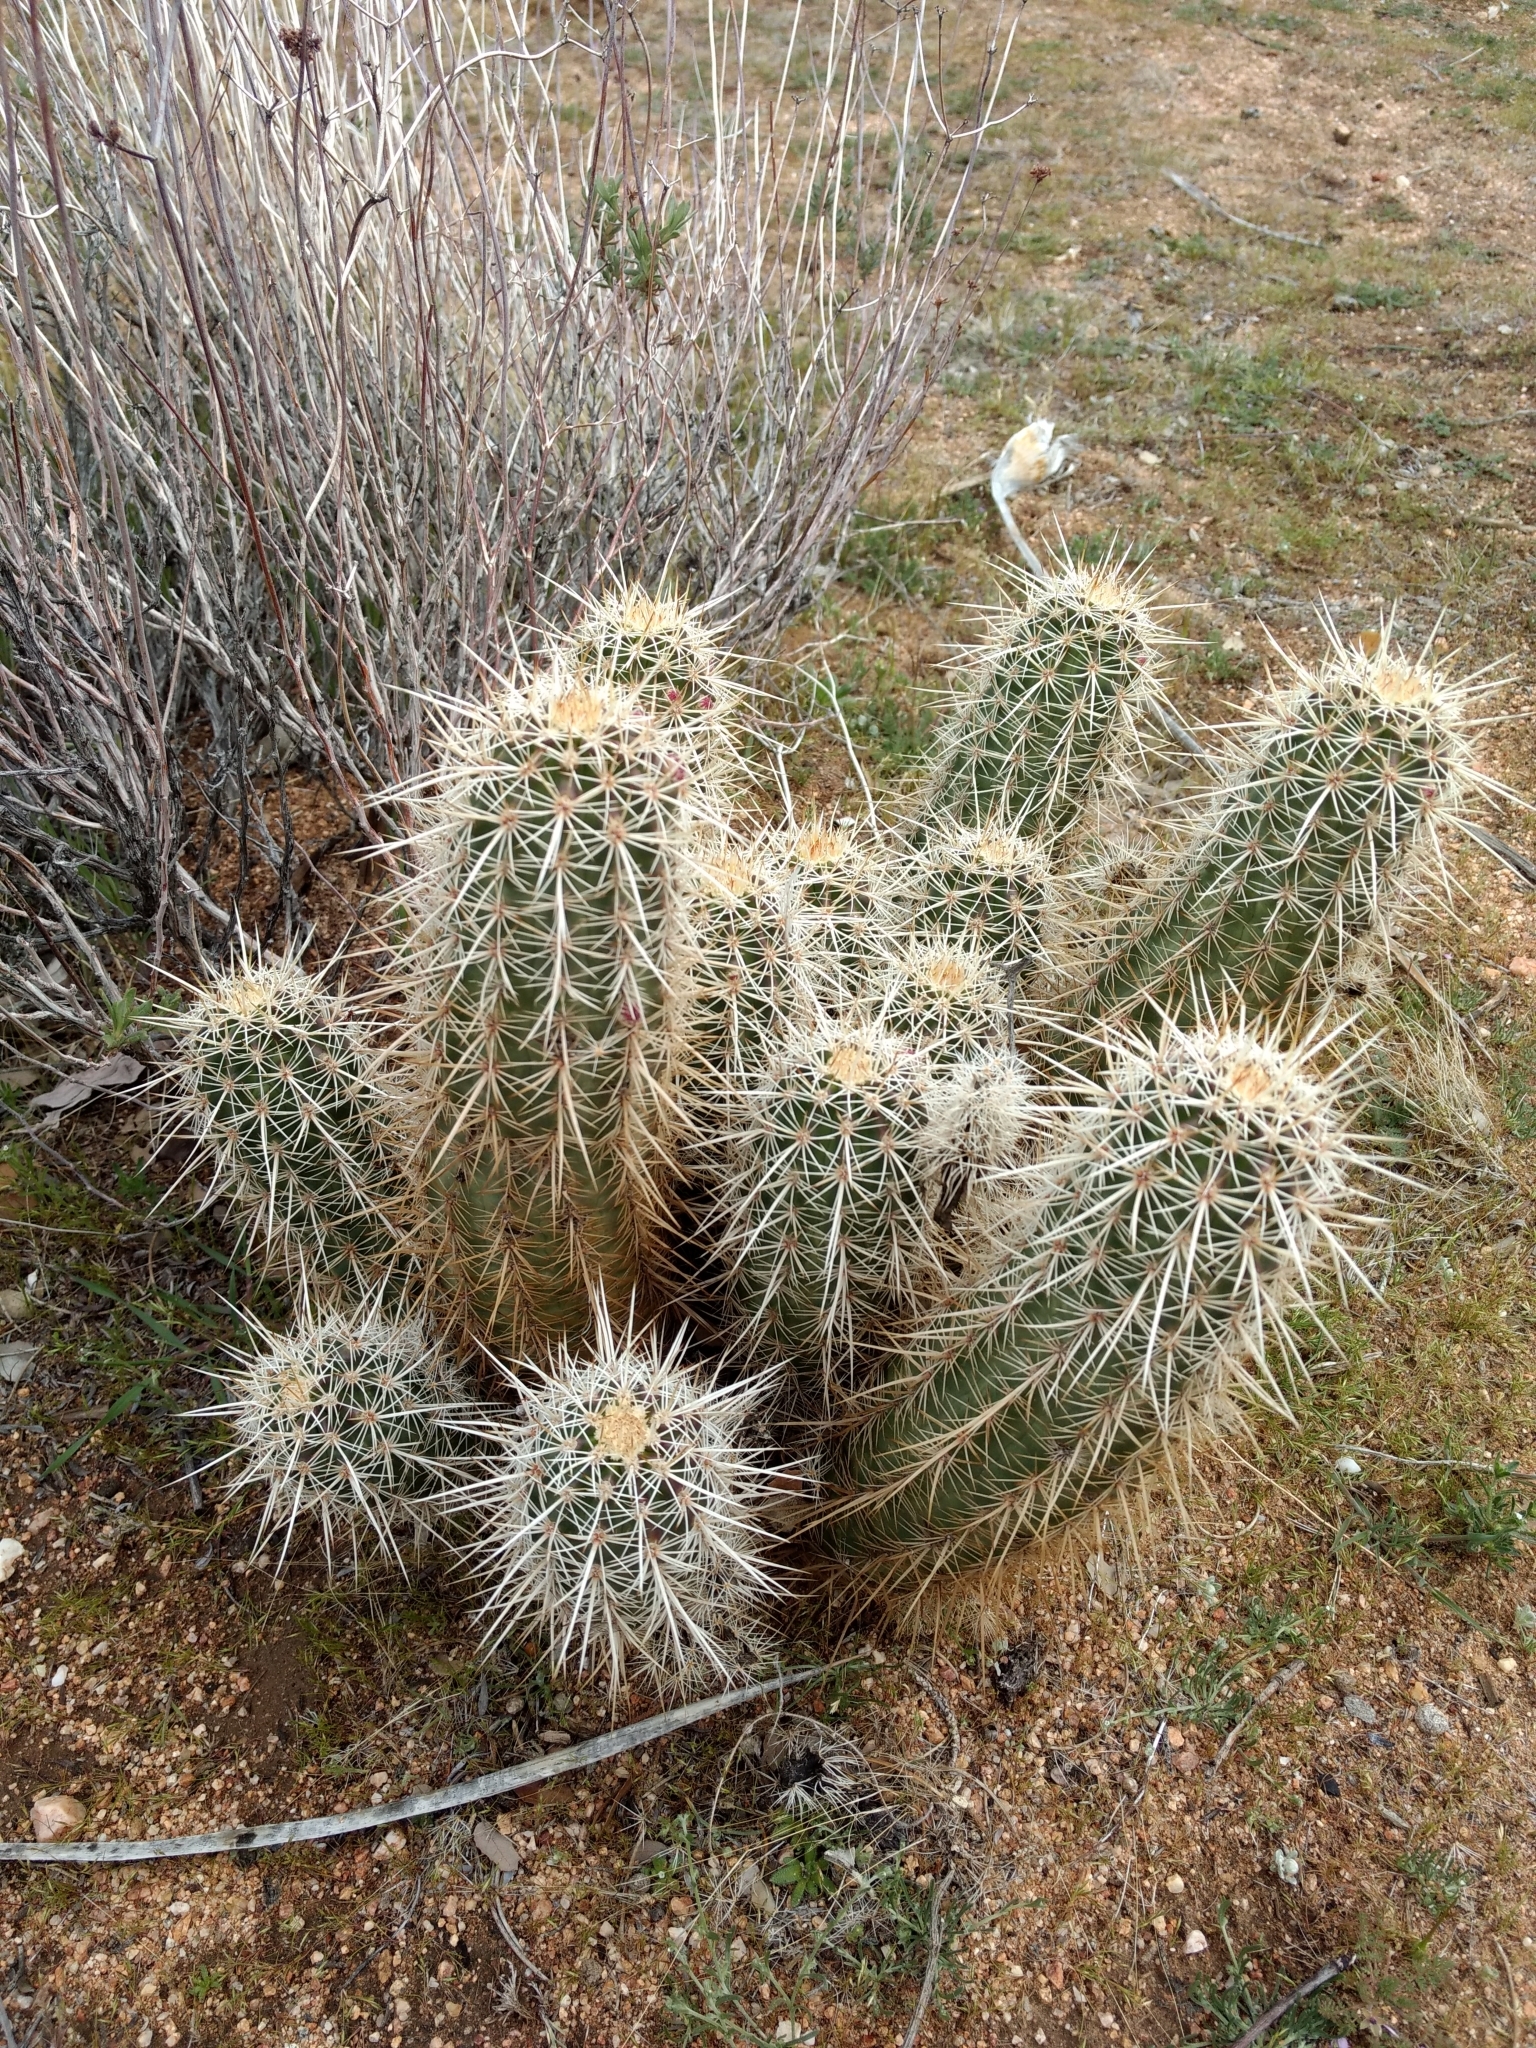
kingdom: Plantae
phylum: Tracheophyta
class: Magnoliopsida
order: Caryophyllales
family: Cactaceae
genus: Echinocereus
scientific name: Echinocereus engelmannii
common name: Engelmann's hedgehog cactus
